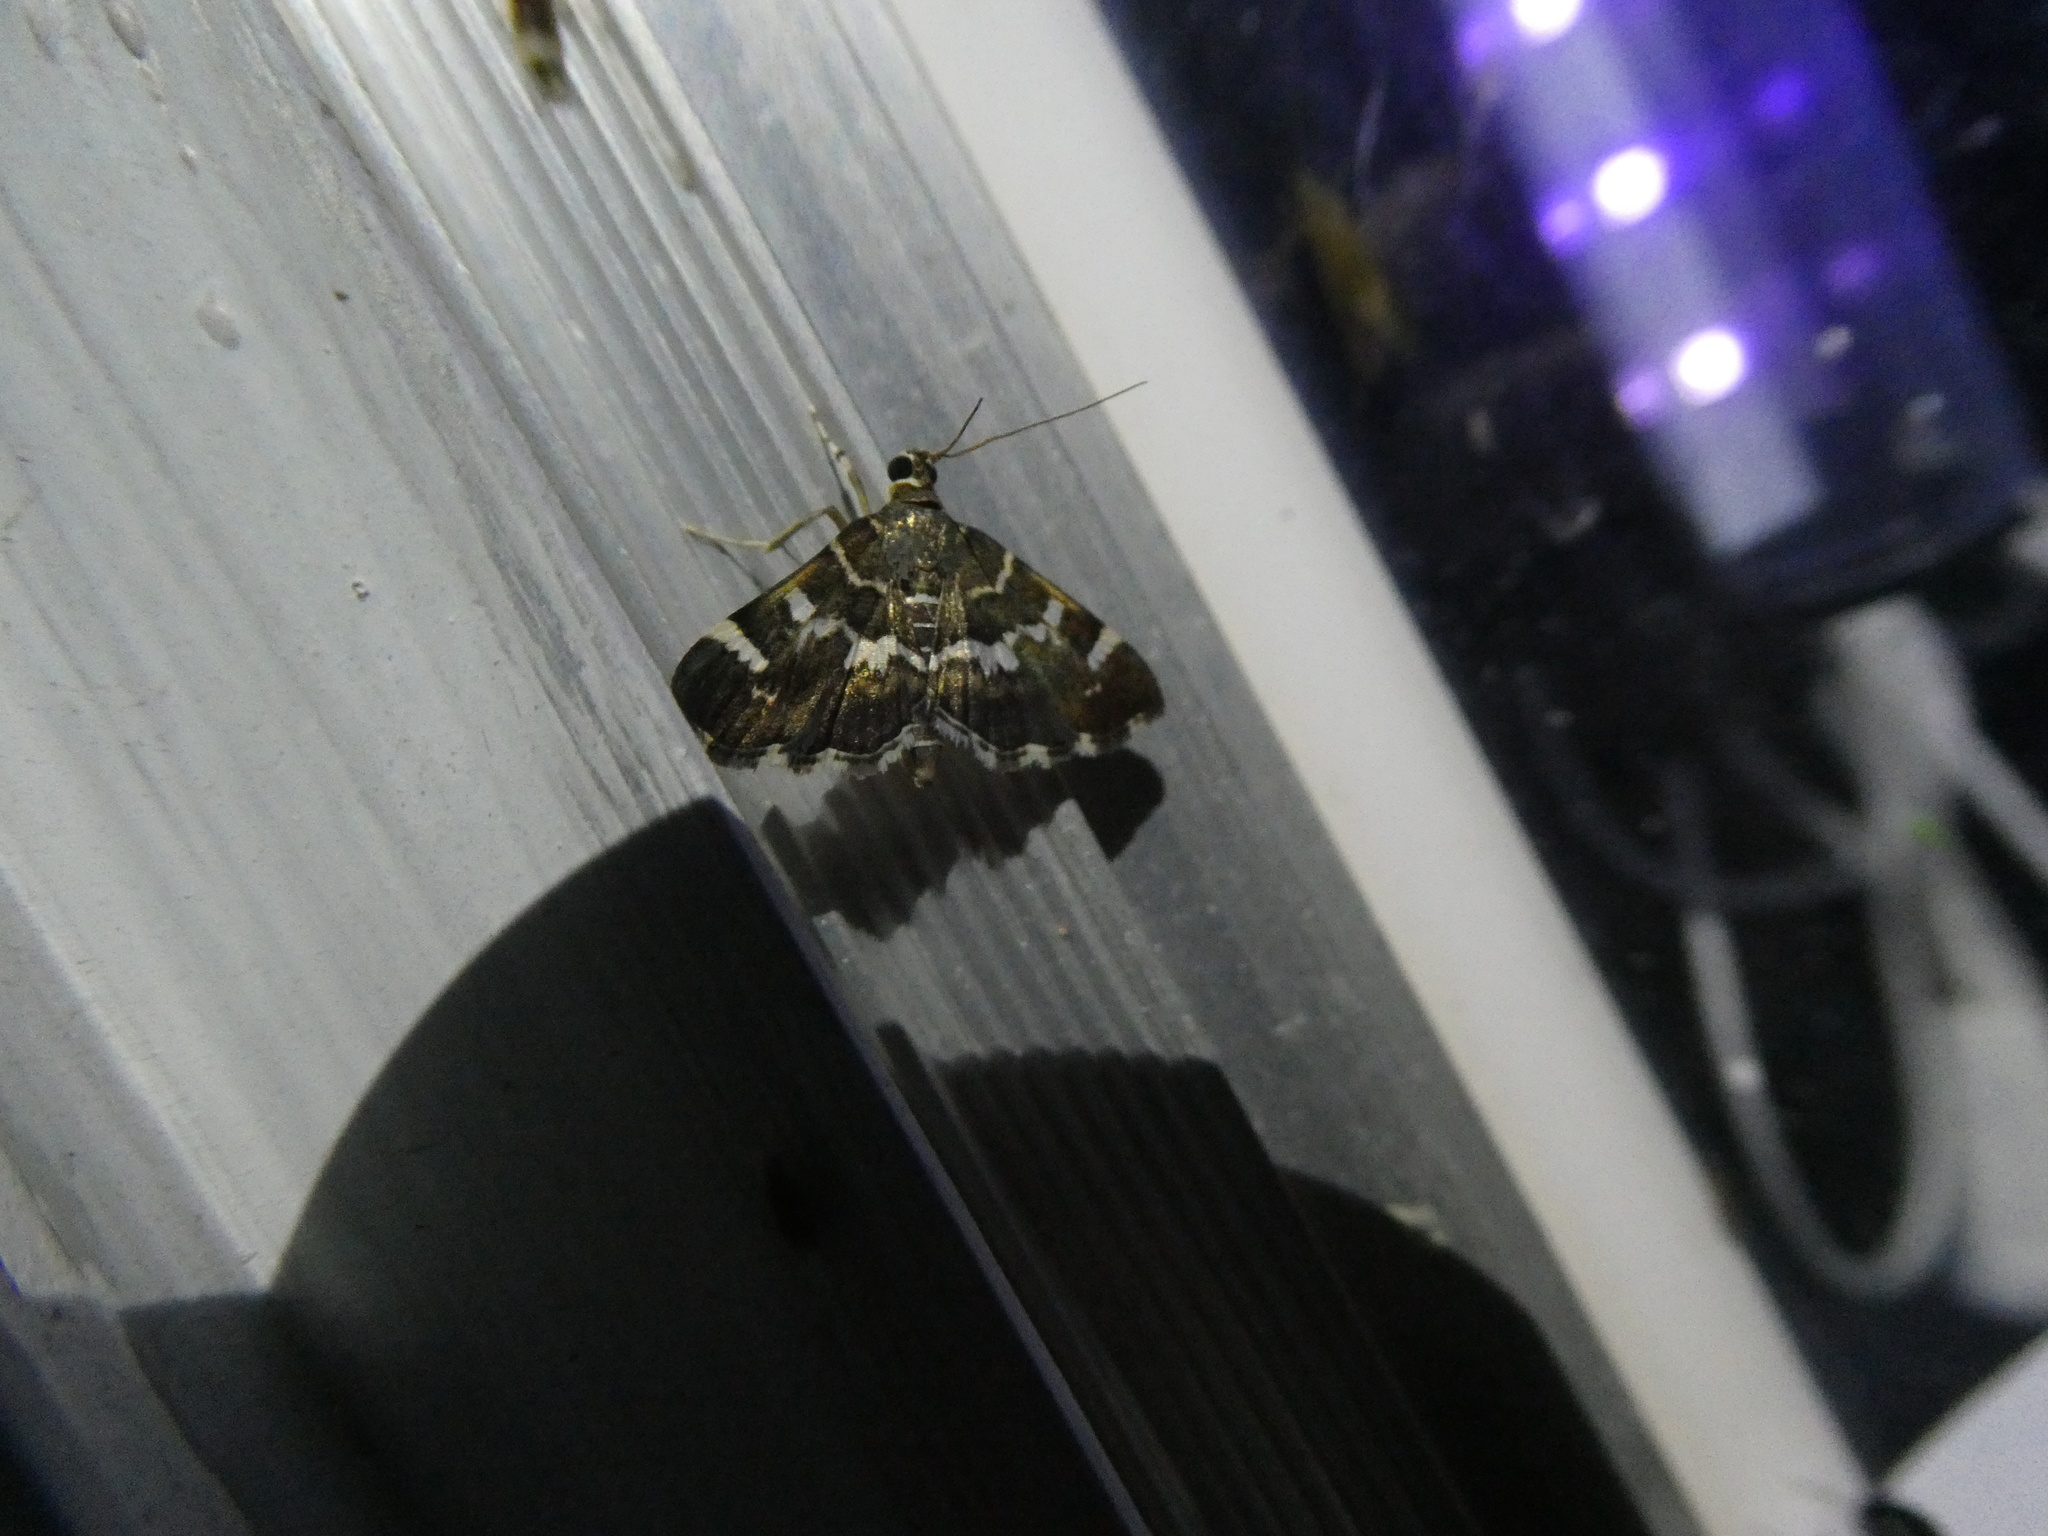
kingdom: Animalia
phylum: Arthropoda
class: Insecta
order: Lepidoptera
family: Crambidae
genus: Hymenia
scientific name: Hymenia perspectalis
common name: Spotted beet webworm
